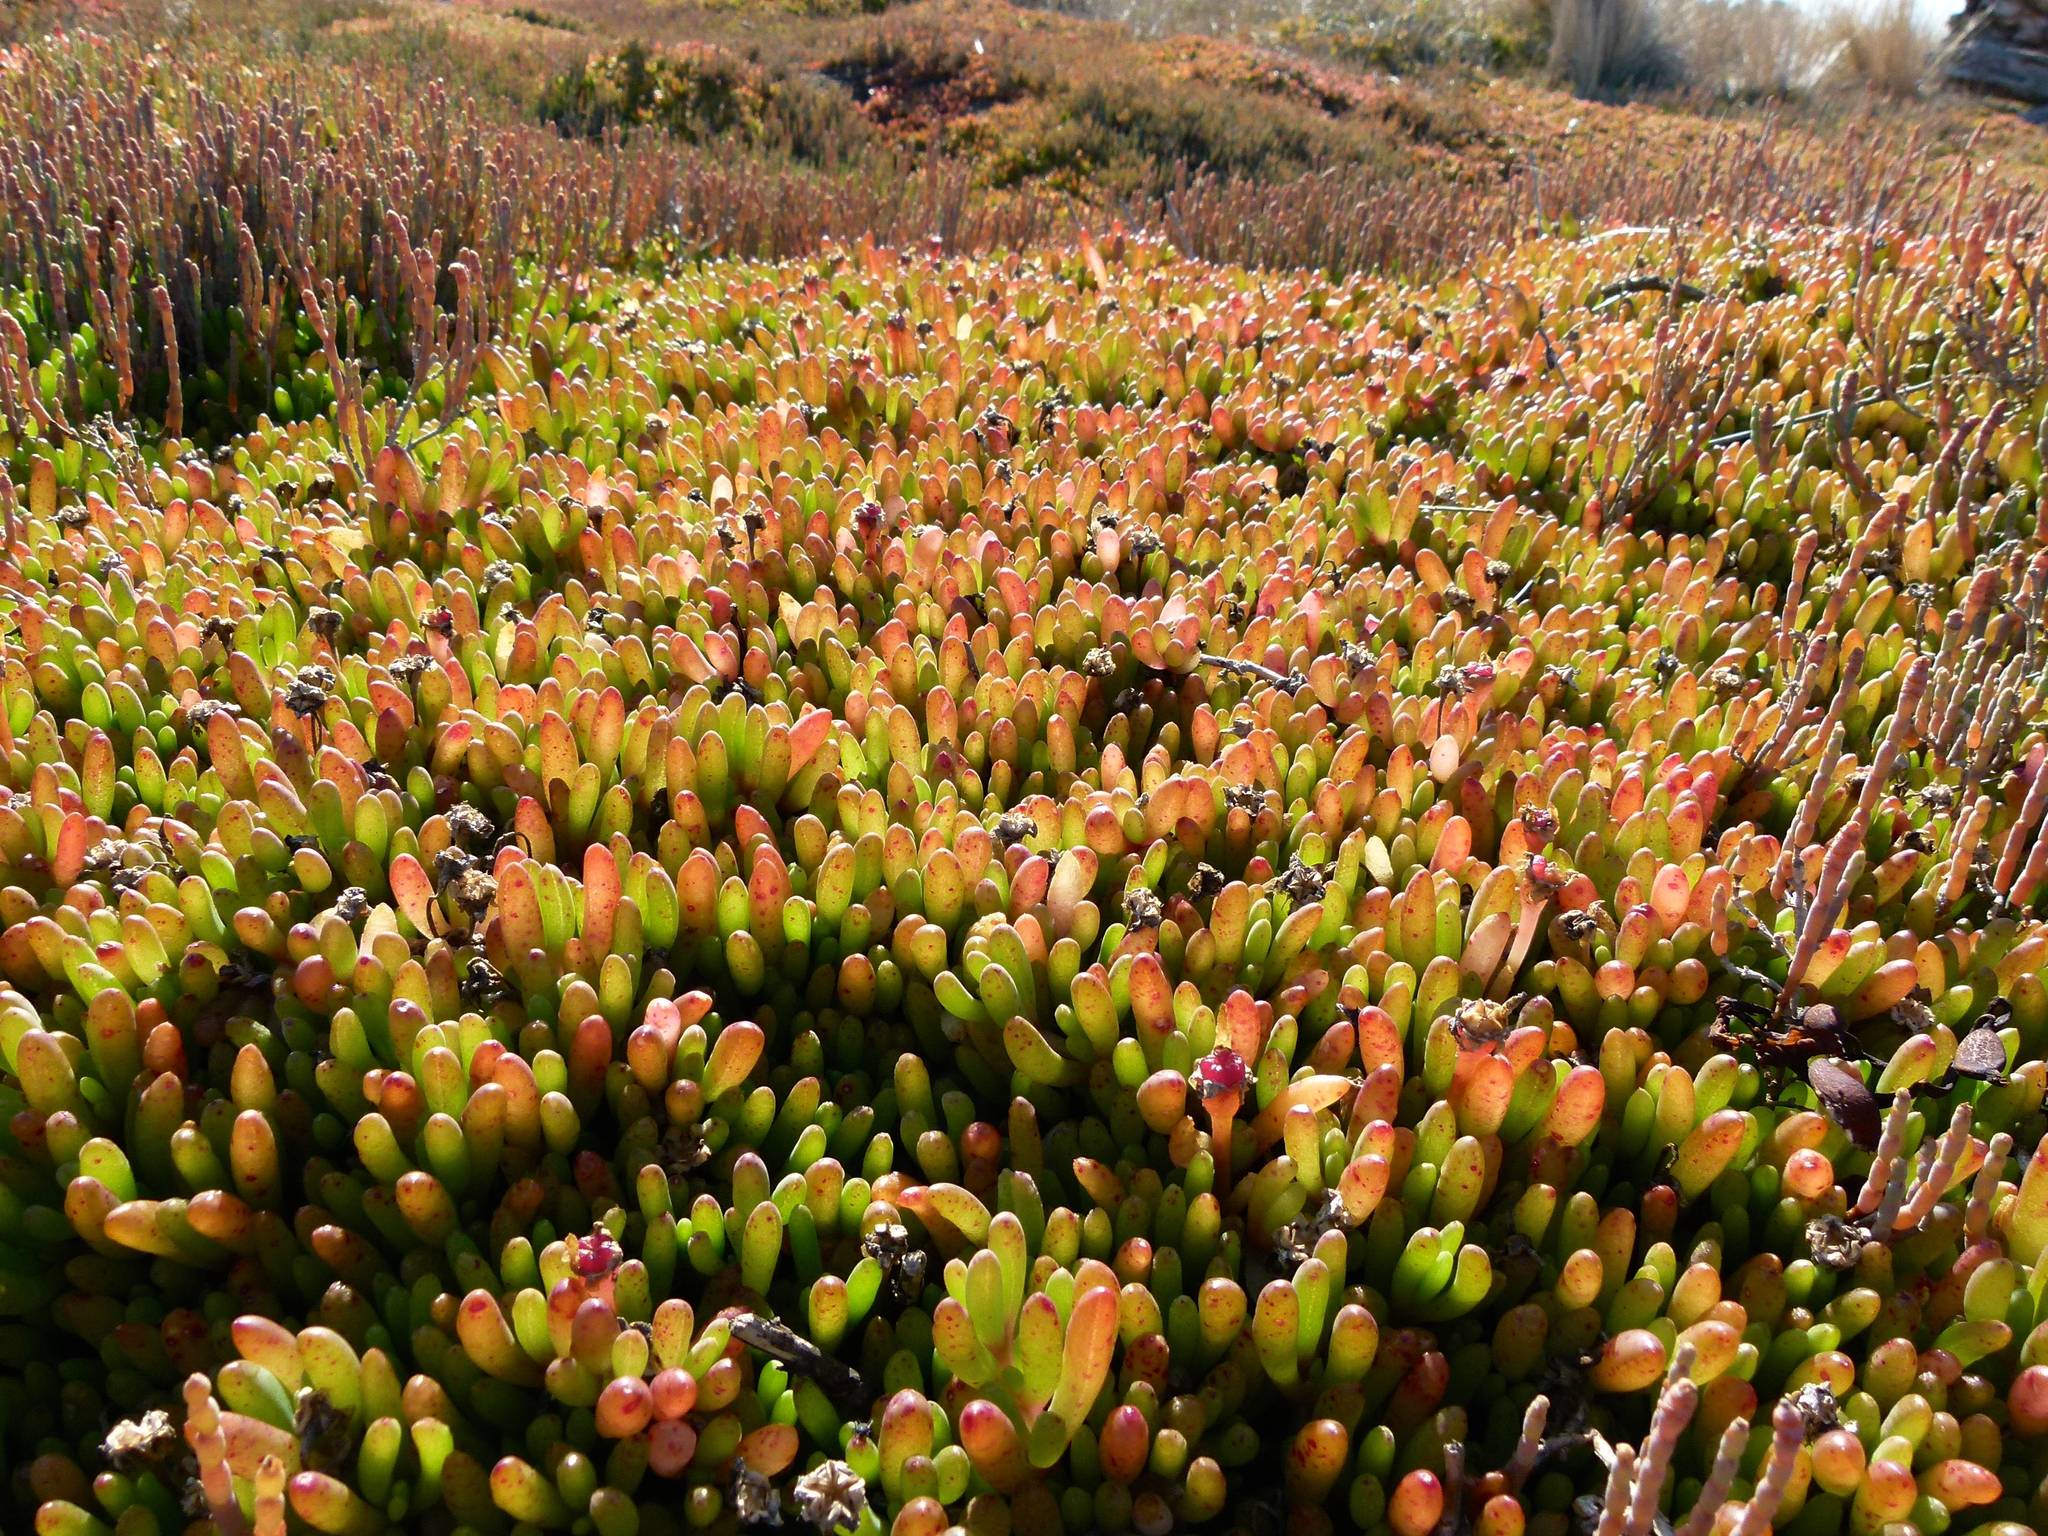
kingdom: Plantae
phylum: Tracheophyta
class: Magnoliopsida
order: Caryophyllales
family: Aizoaceae
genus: Disphyma
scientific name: Disphyma clavellatum
